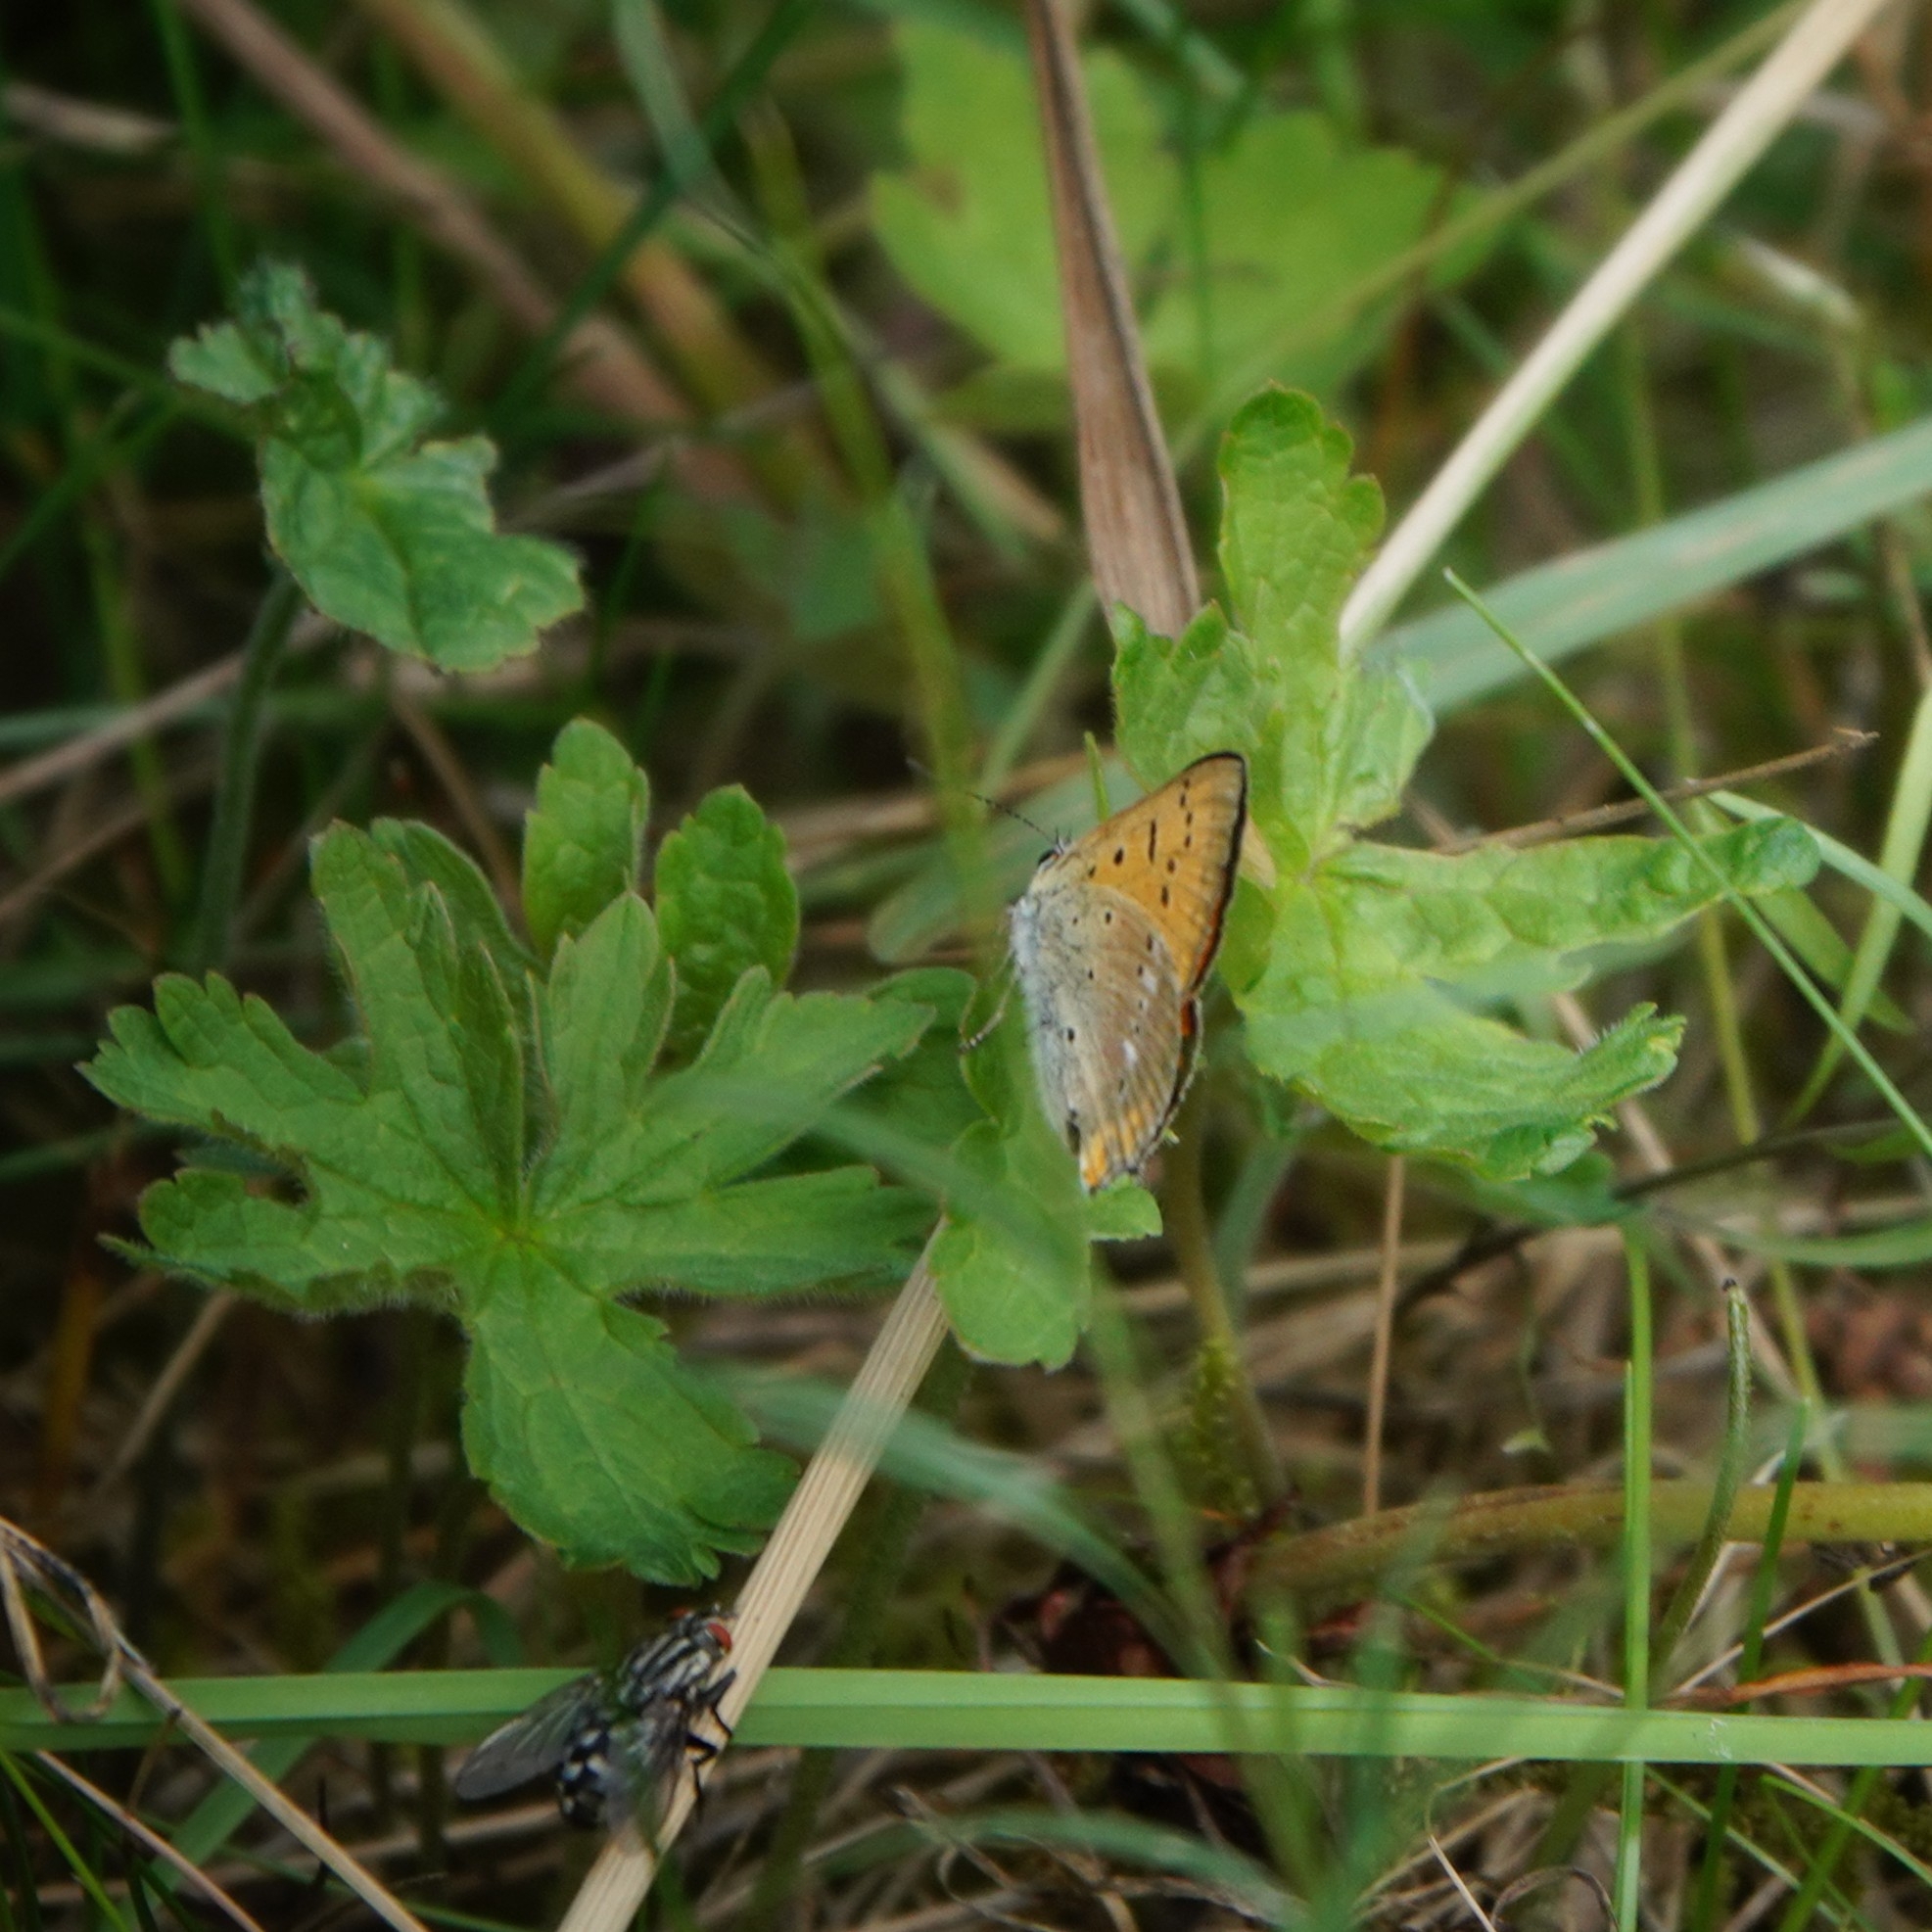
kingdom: Animalia
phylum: Arthropoda
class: Insecta
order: Lepidoptera
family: Lycaenidae
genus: Lycaena
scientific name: Lycaena virgaureae
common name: Scarce copper
